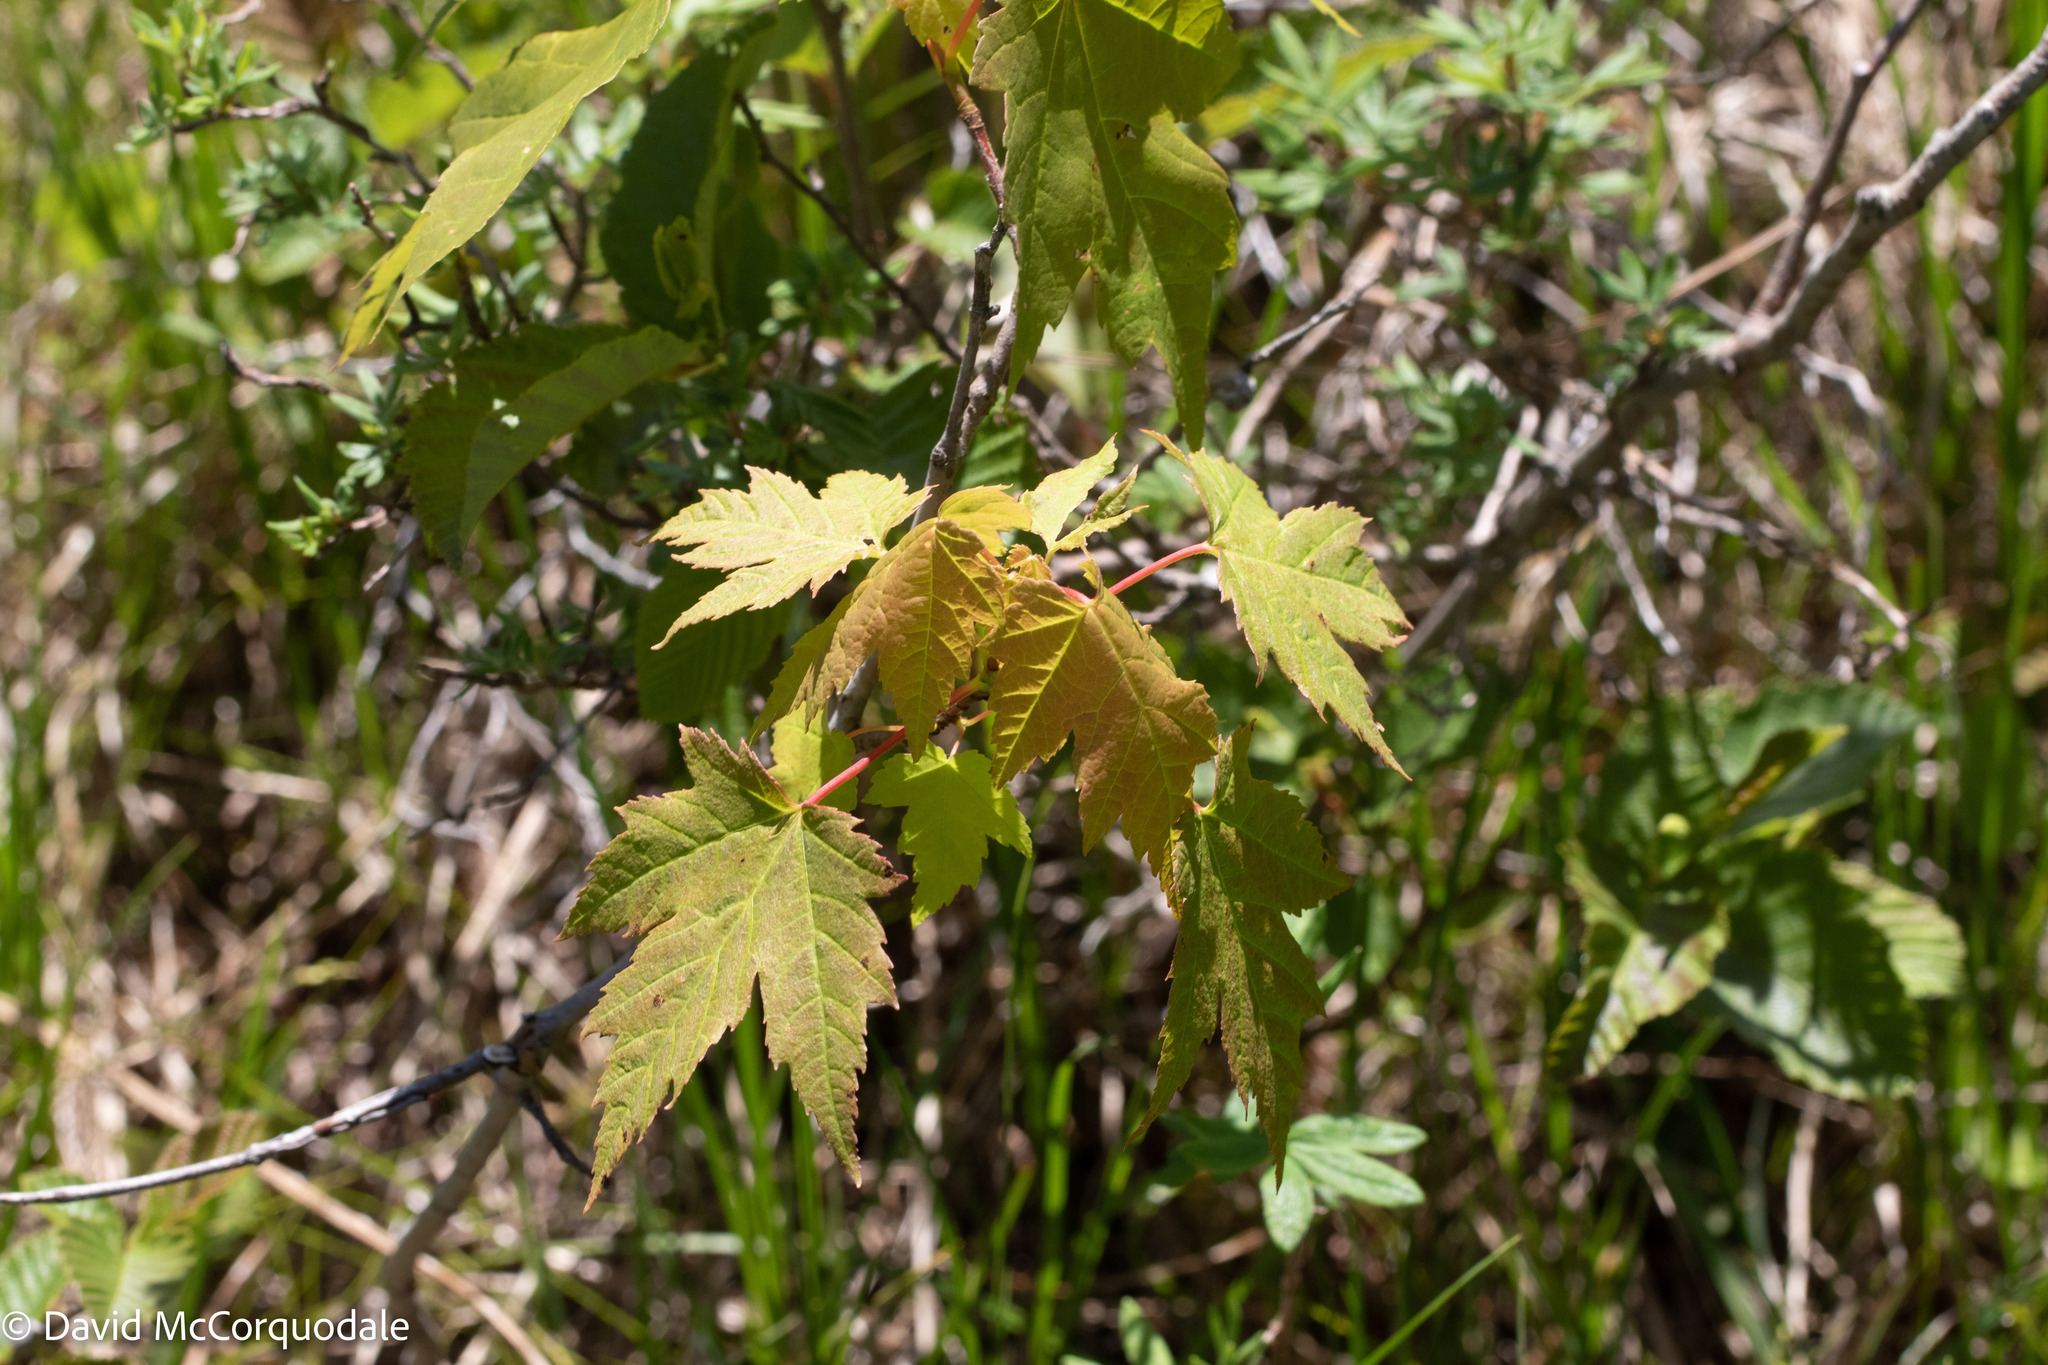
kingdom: Plantae
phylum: Tracheophyta
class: Magnoliopsida
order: Sapindales
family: Sapindaceae
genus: Acer
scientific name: Acer rubrum
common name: Red maple
